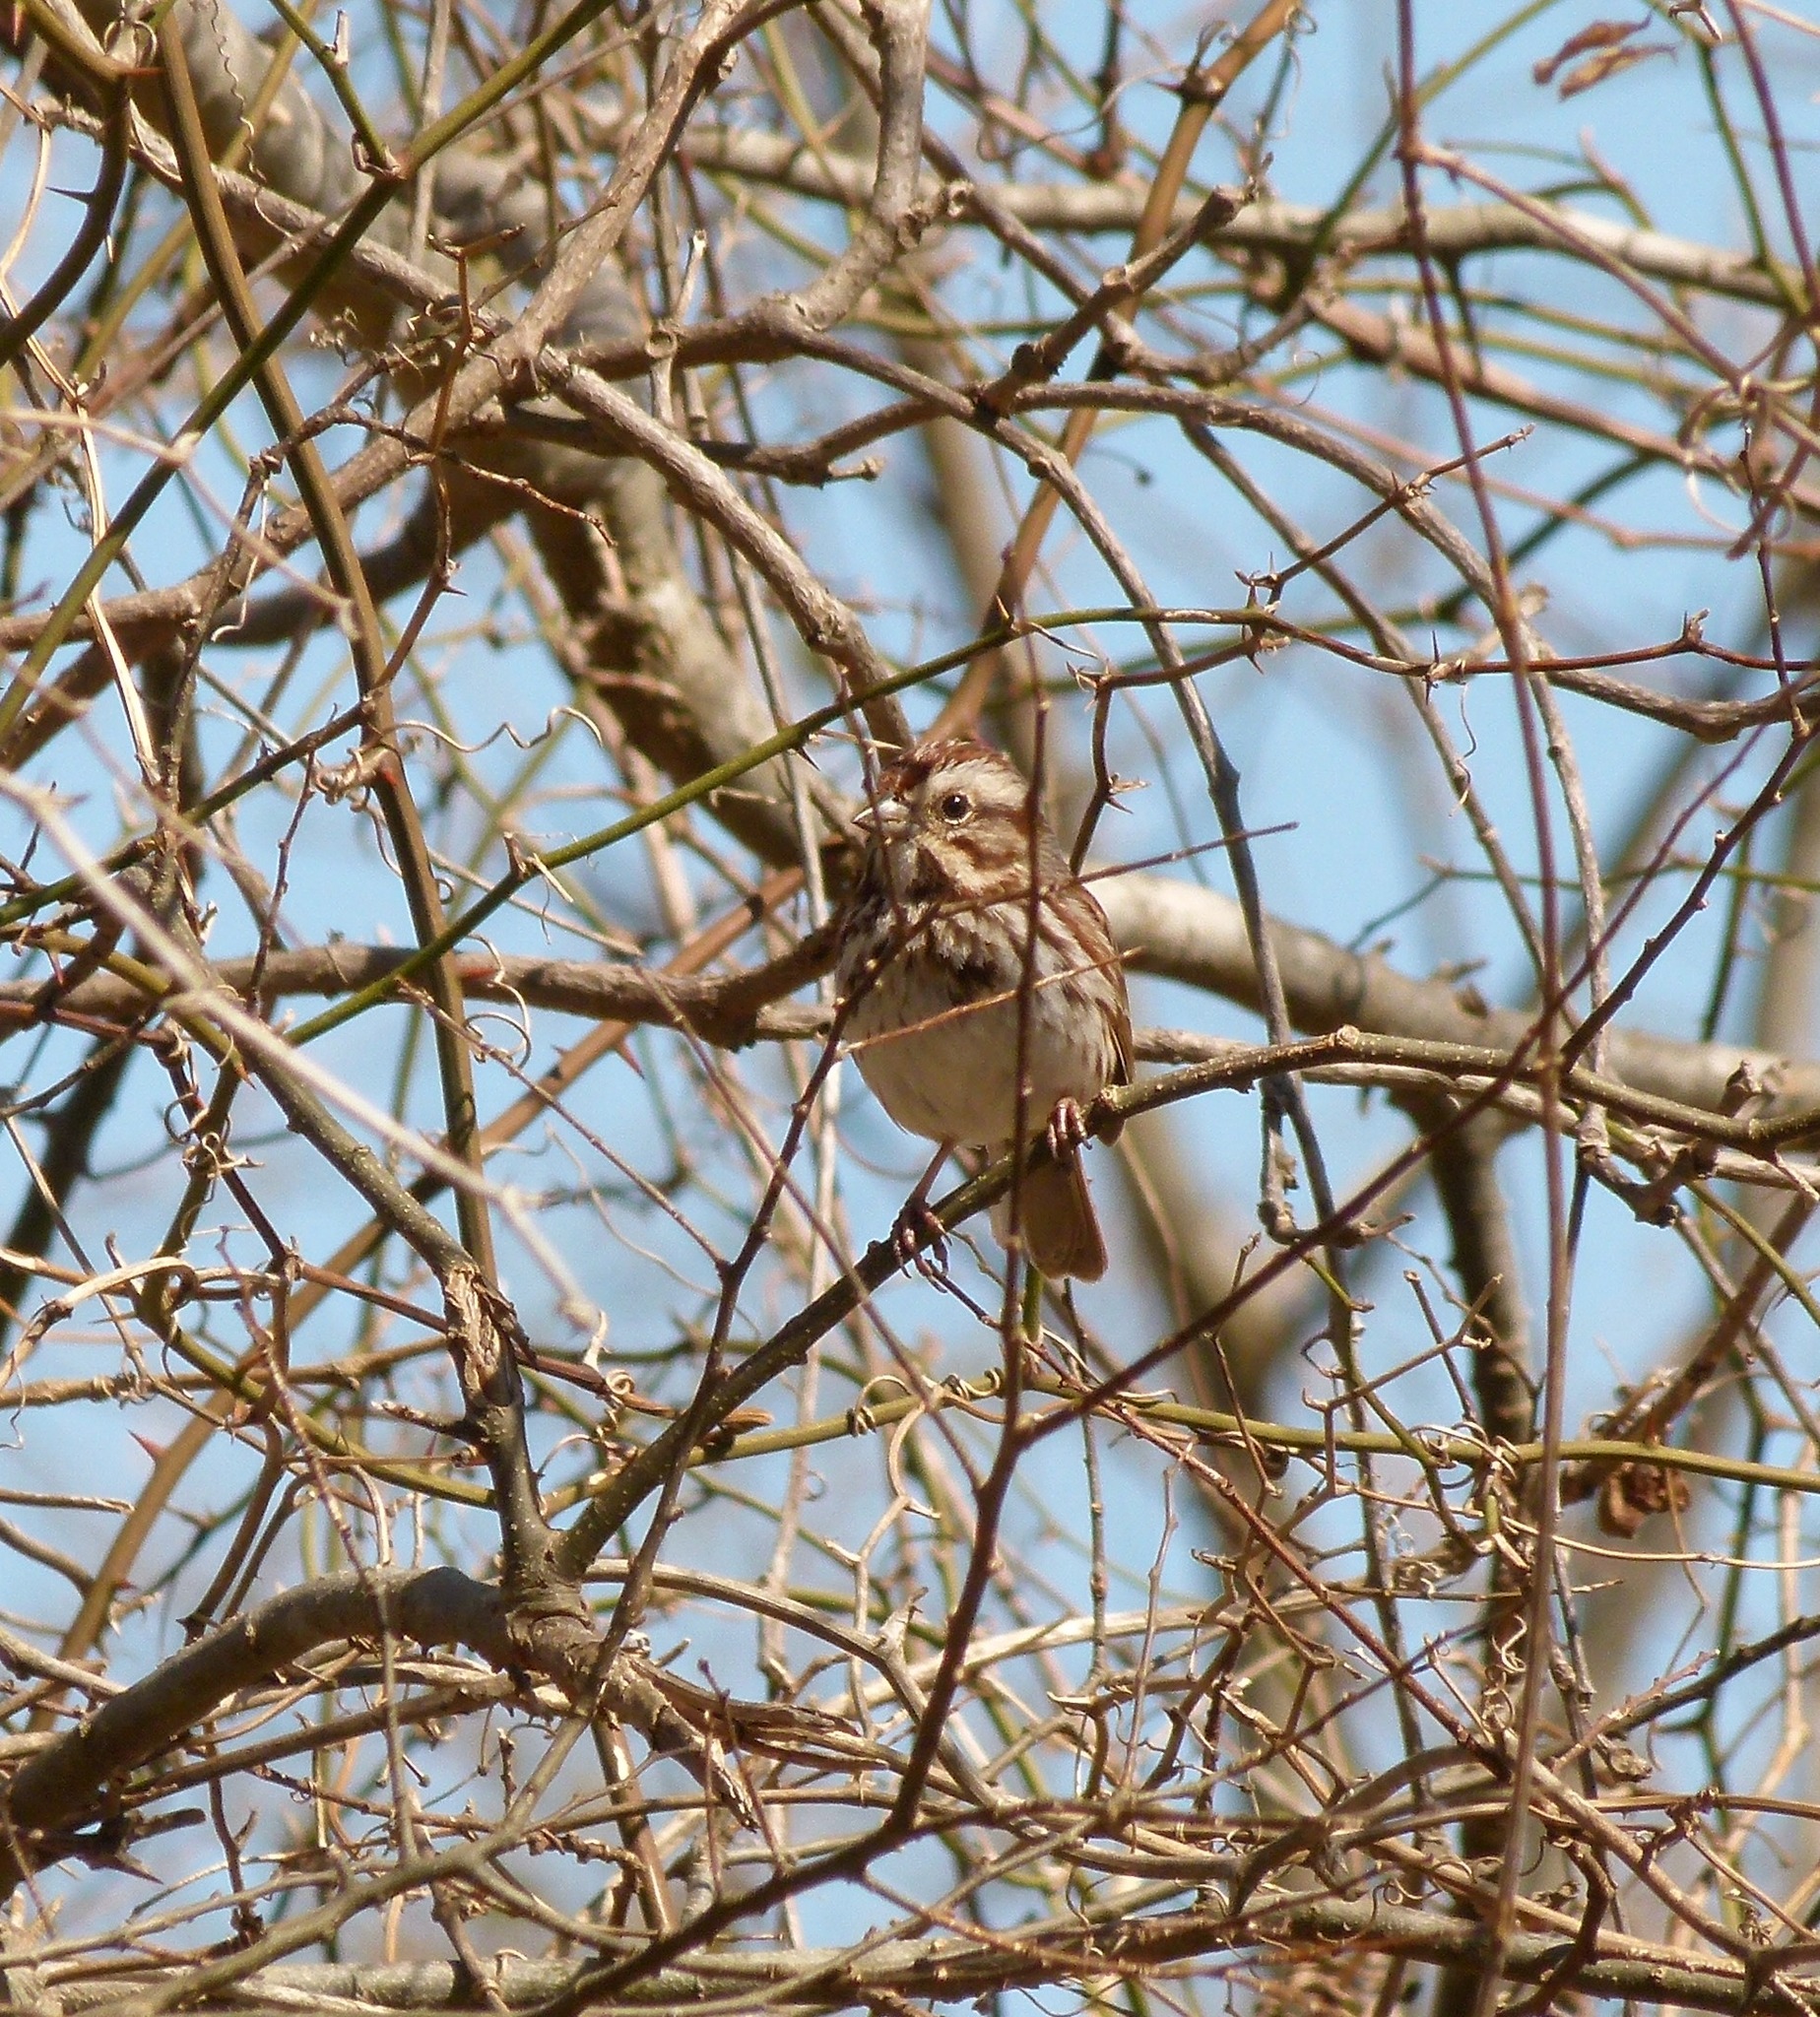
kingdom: Animalia
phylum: Chordata
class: Aves
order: Passeriformes
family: Passerellidae
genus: Melospiza
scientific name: Melospiza melodia
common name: Song sparrow
